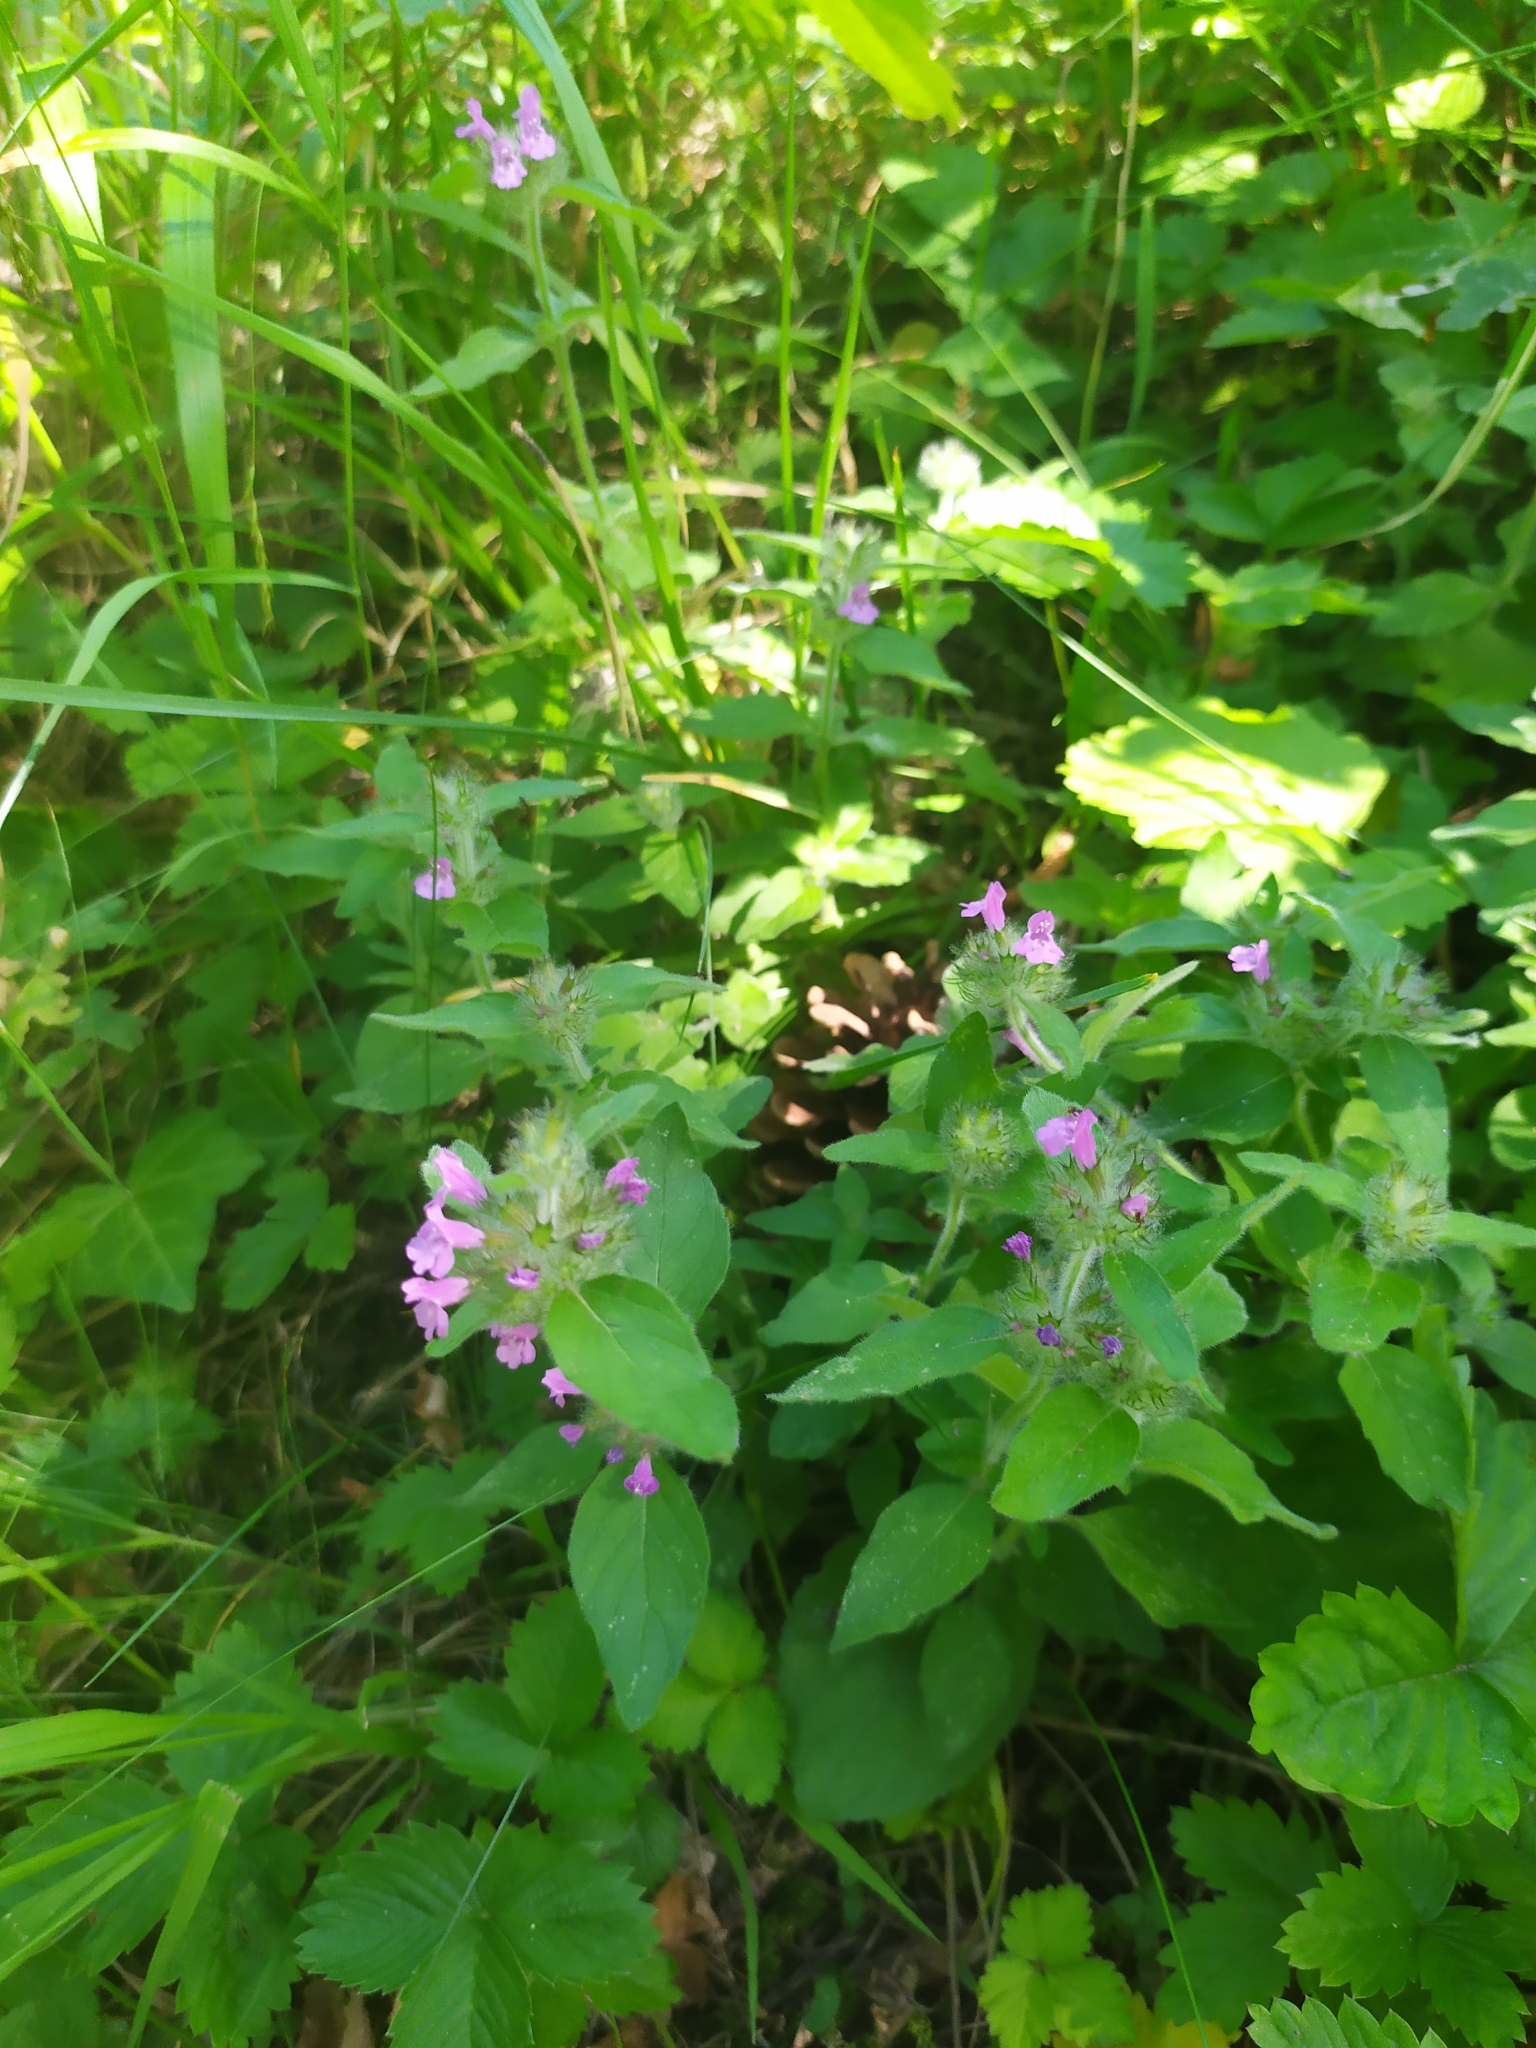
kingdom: Plantae
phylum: Tracheophyta
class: Magnoliopsida
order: Lamiales
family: Lamiaceae
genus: Clinopodium
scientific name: Clinopodium vulgare
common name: Wild basil
